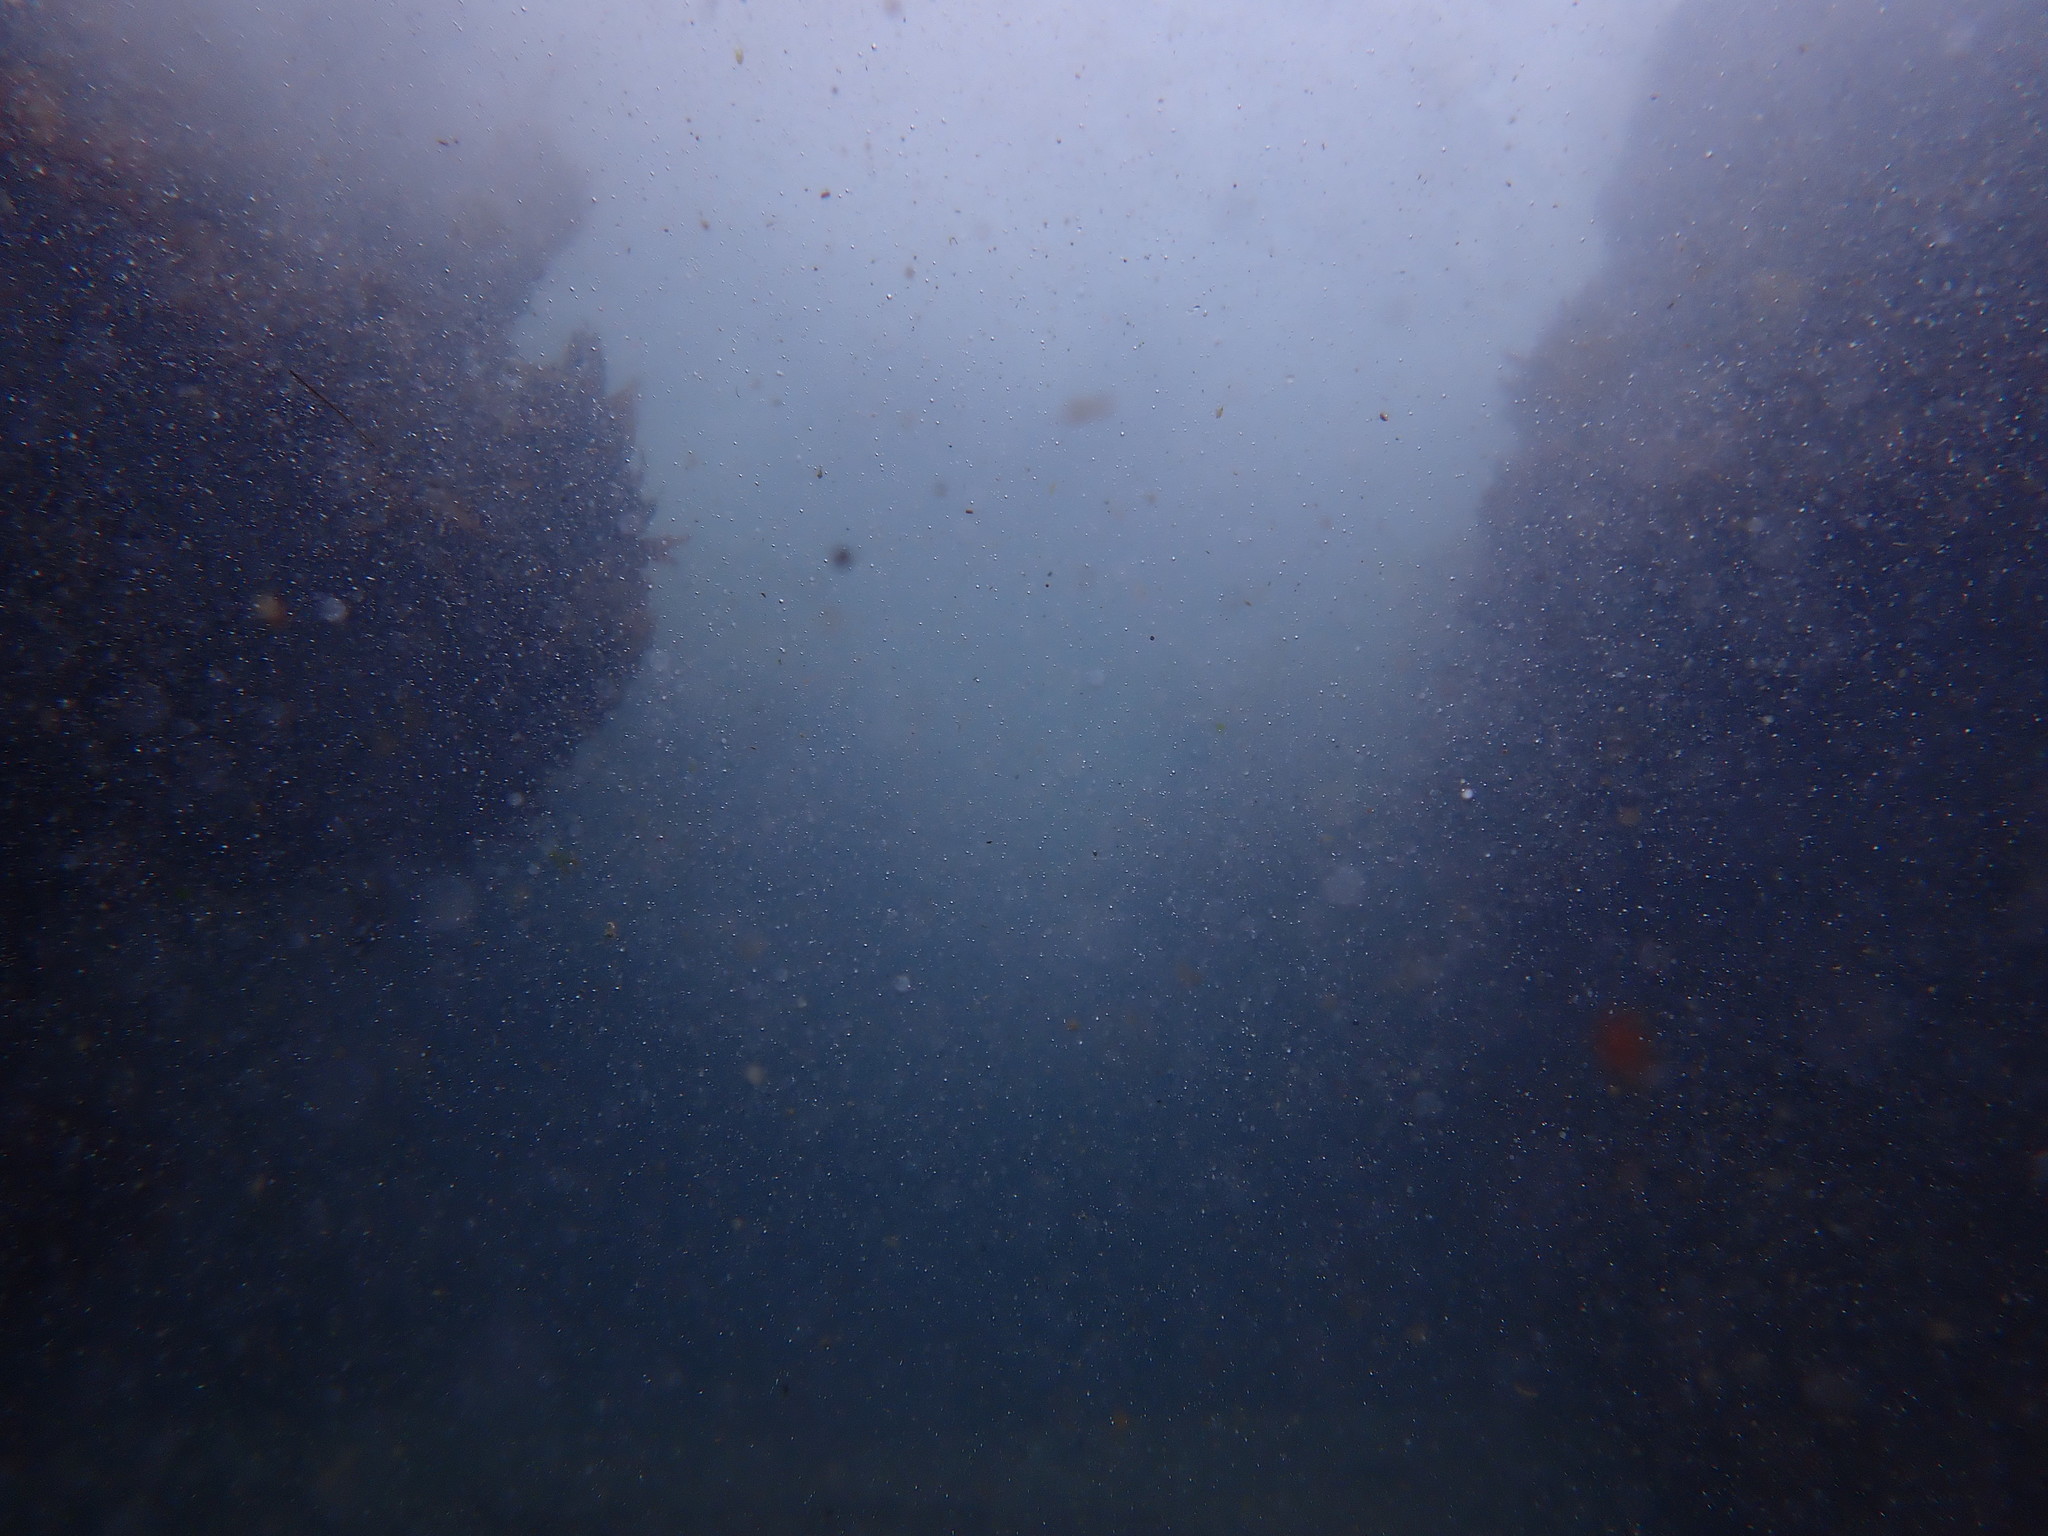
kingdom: Animalia
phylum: Chordata
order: Perciformes
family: Chironemidae
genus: Chironemus
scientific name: Chironemus marmoratus
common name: Kelpfish
